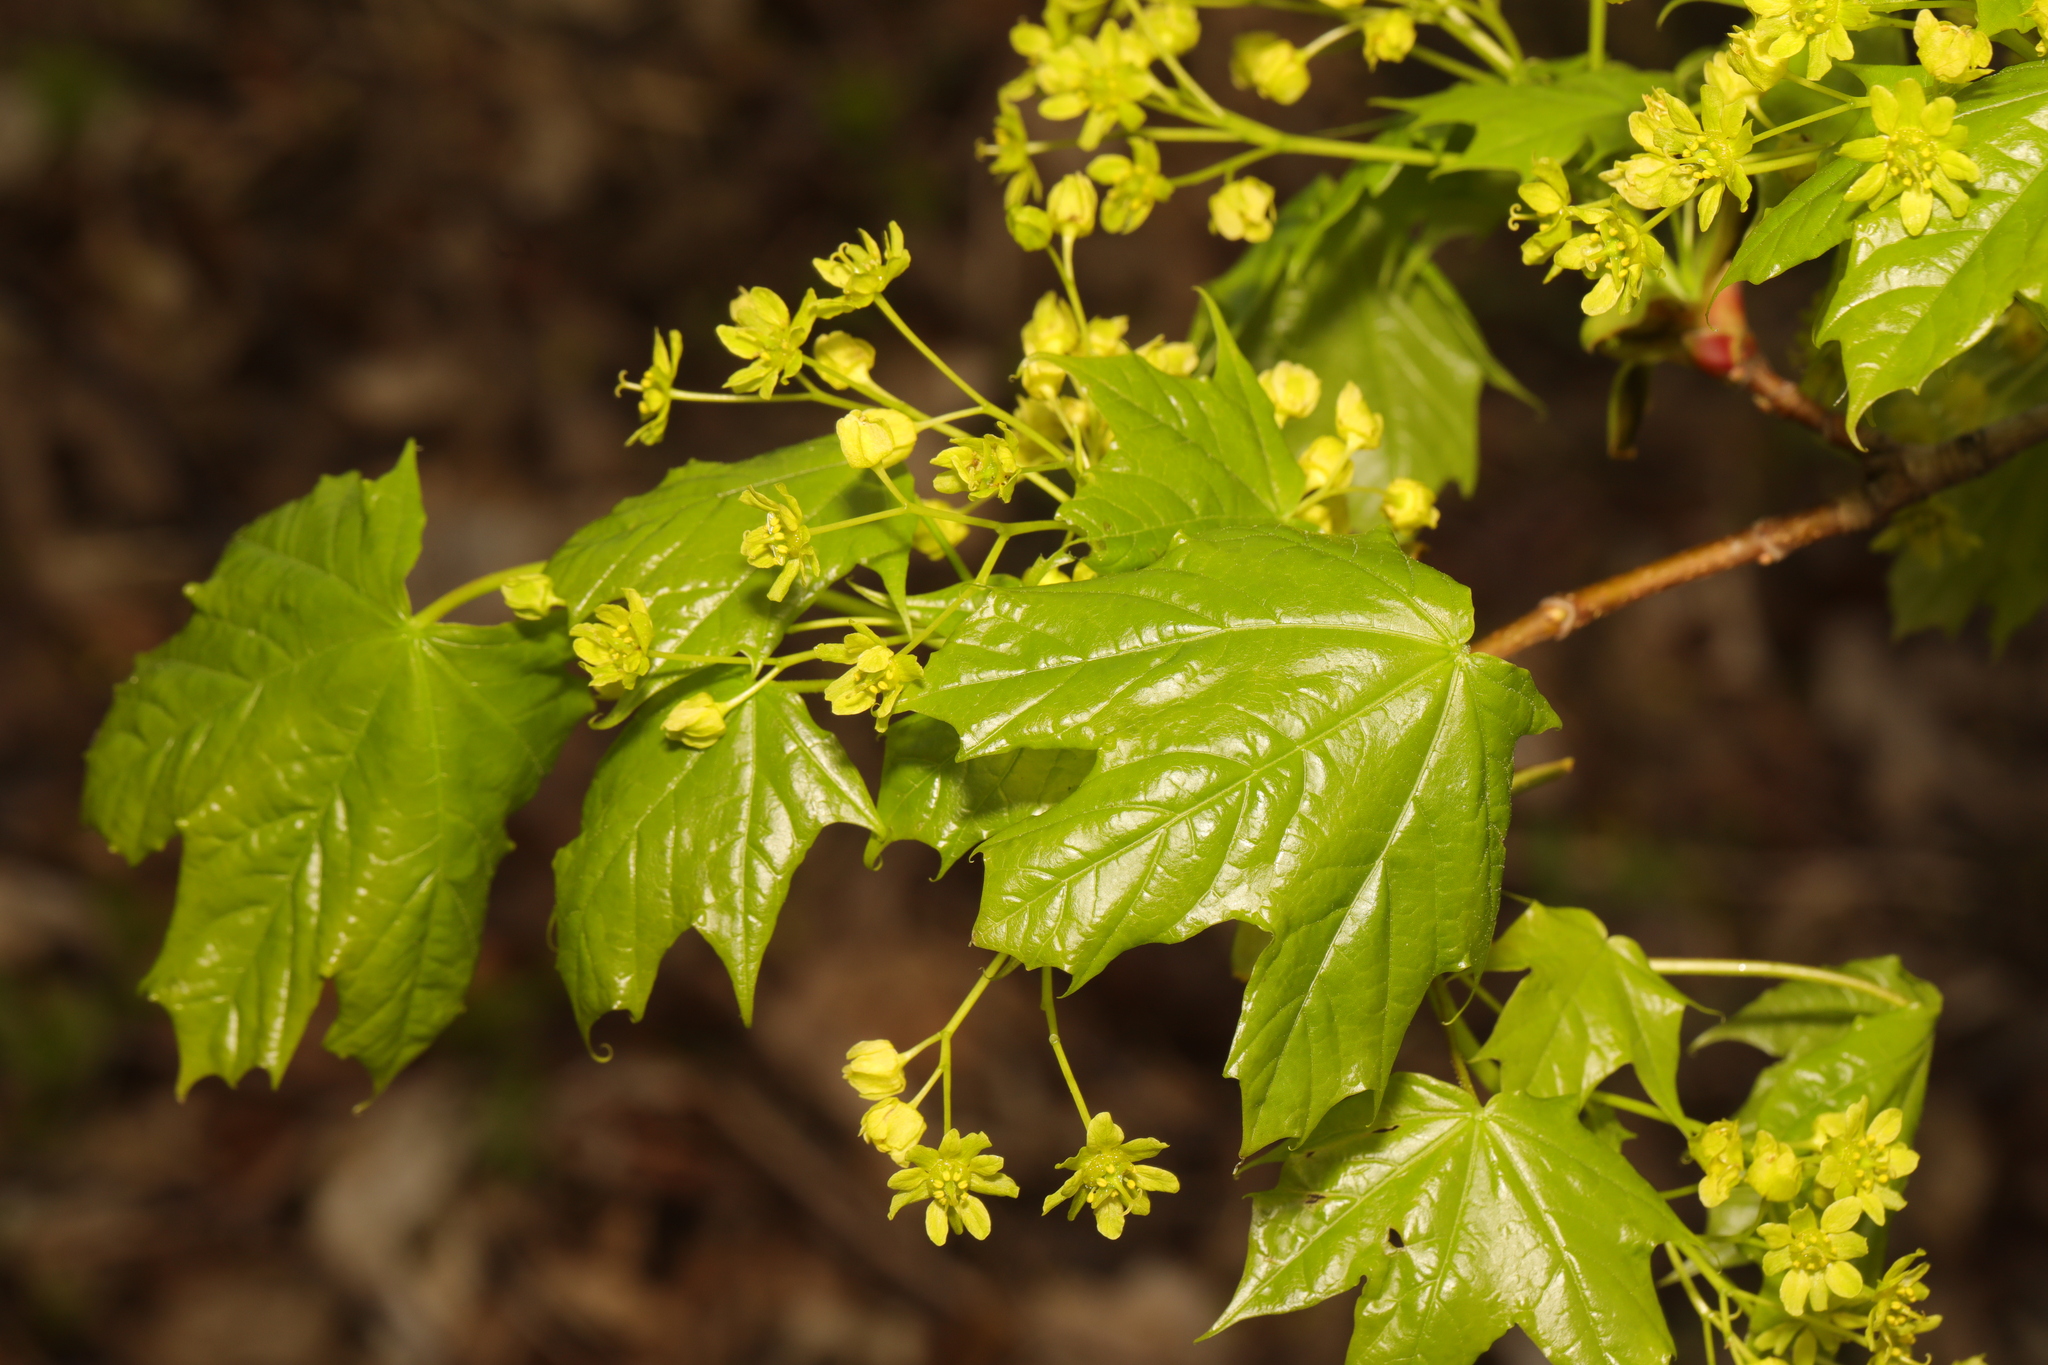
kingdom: Plantae
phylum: Tracheophyta
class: Magnoliopsida
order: Sapindales
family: Sapindaceae
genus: Acer
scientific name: Acer platanoides
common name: Norway maple
